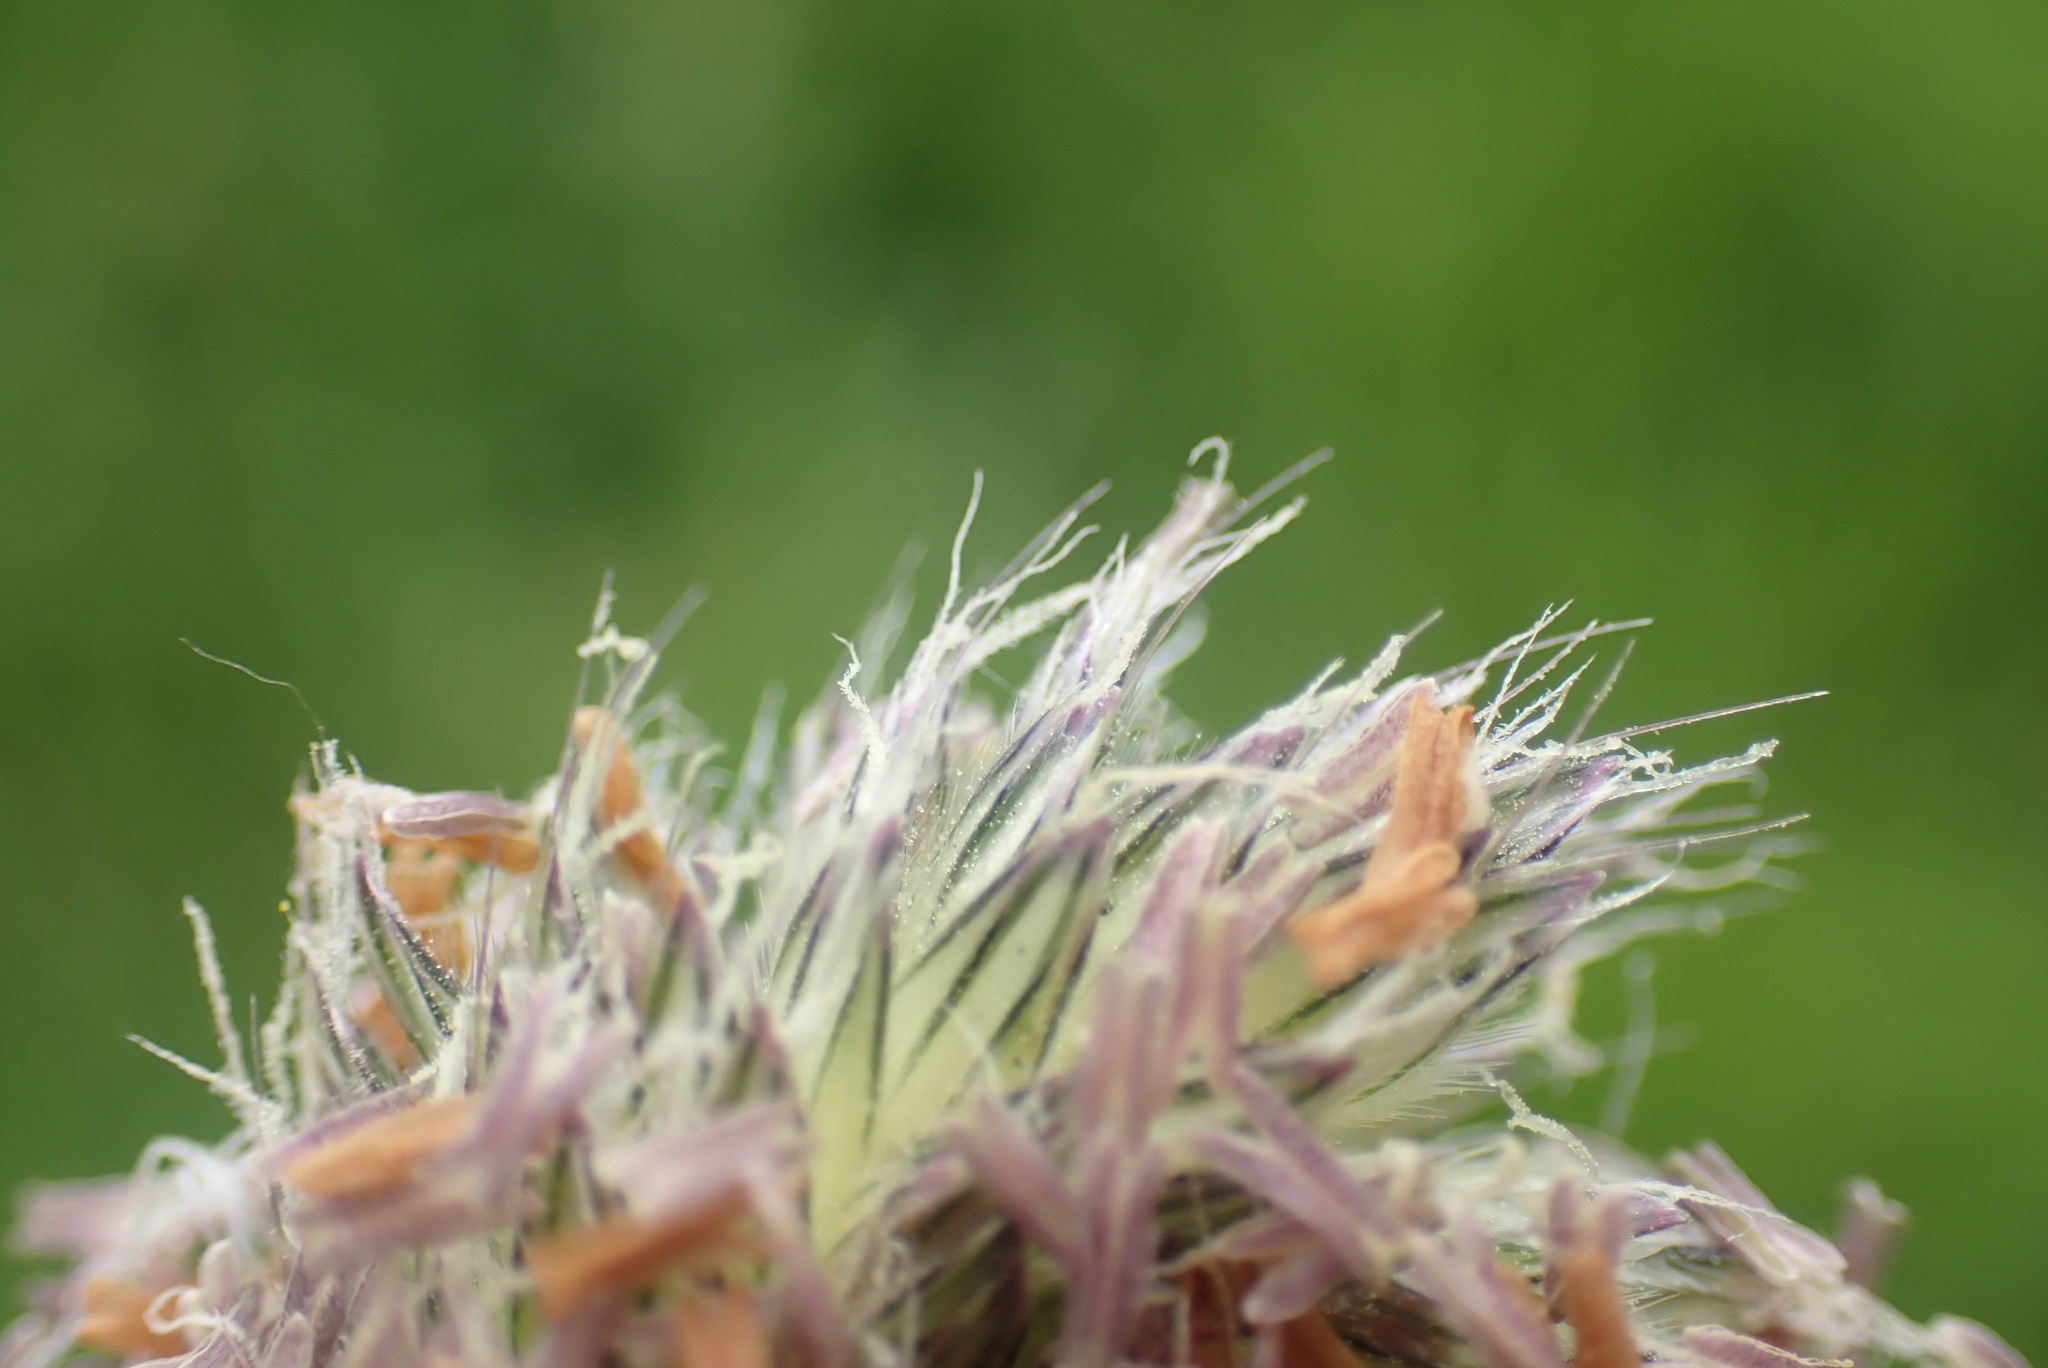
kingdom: Plantae
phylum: Tracheophyta
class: Liliopsida
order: Poales
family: Poaceae
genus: Alopecurus
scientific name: Alopecurus pratensis
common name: Meadow foxtail
